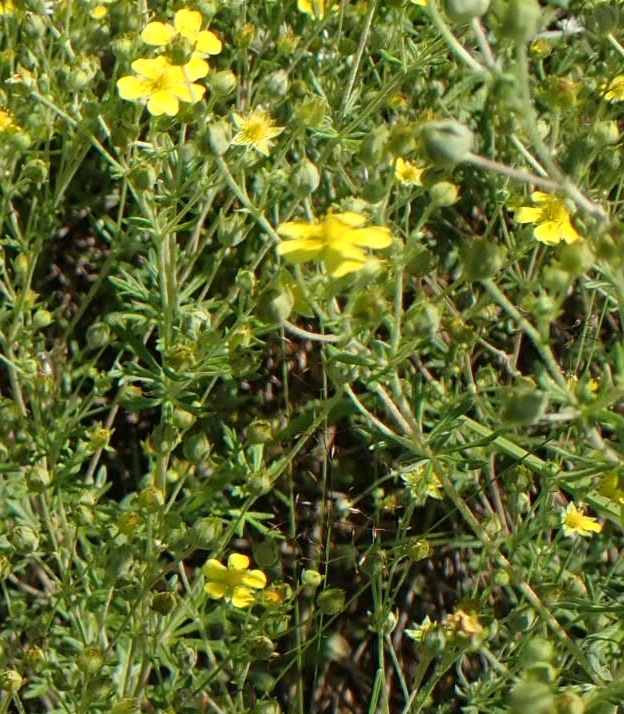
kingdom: Plantae
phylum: Tracheophyta
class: Magnoliopsida
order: Rosales
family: Rosaceae
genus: Potentilla
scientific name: Potentilla argentea
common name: Hoary cinquefoil
